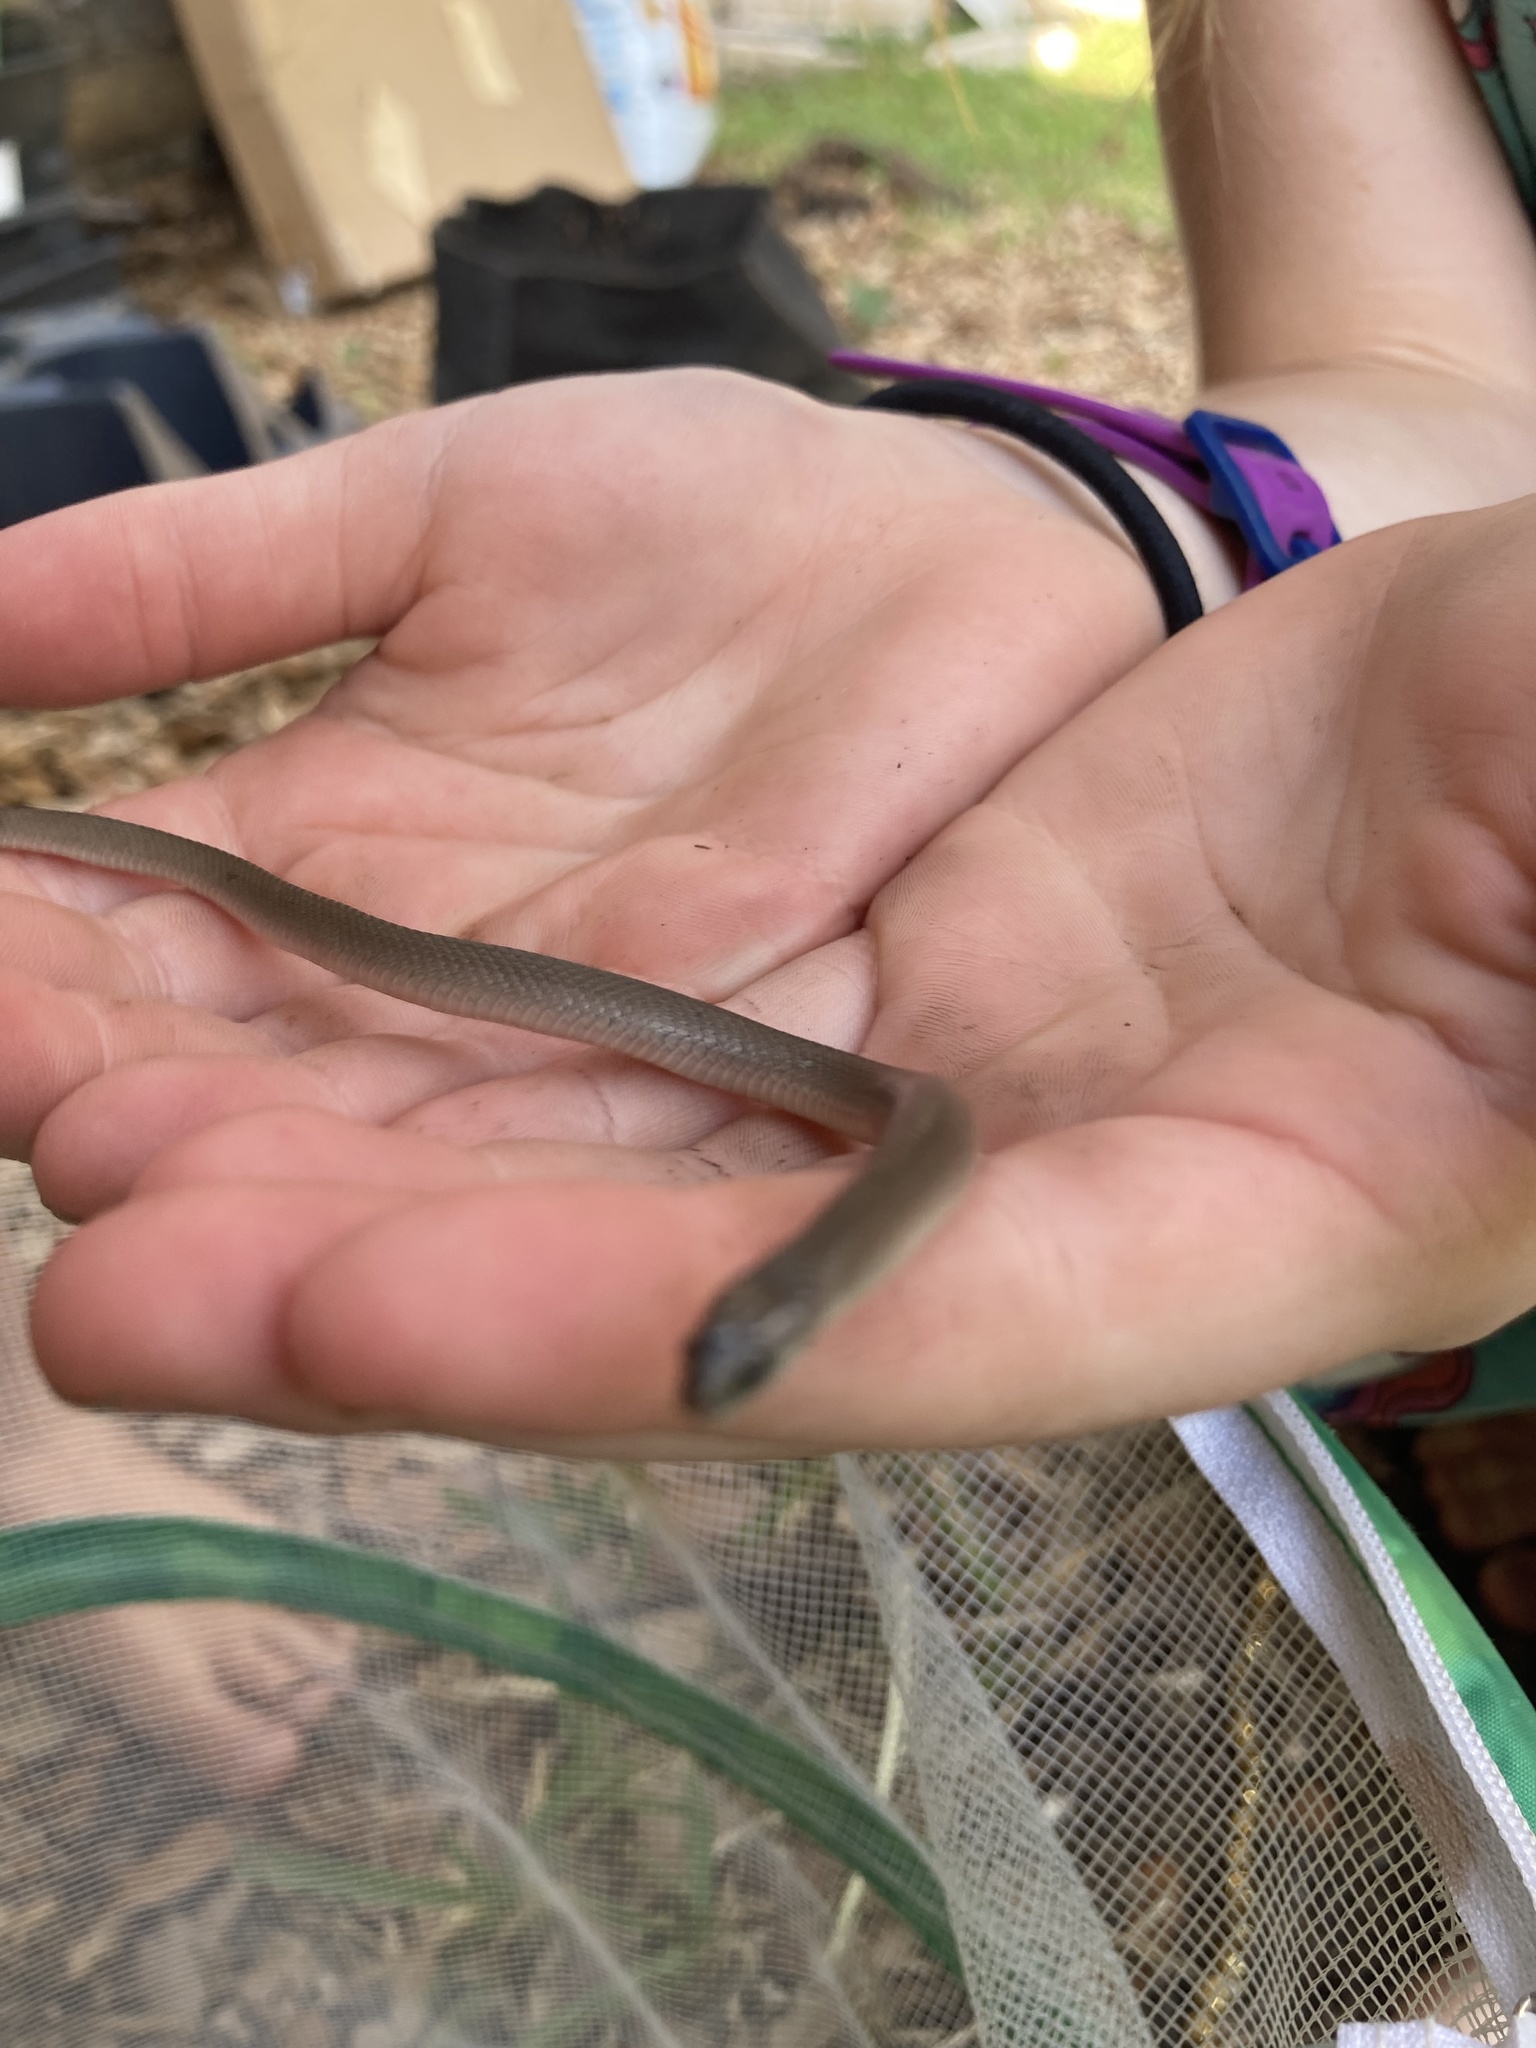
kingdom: Animalia
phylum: Chordata
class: Squamata
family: Colubridae
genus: Haldea
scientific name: Haldea striatula
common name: Rough earth snake
